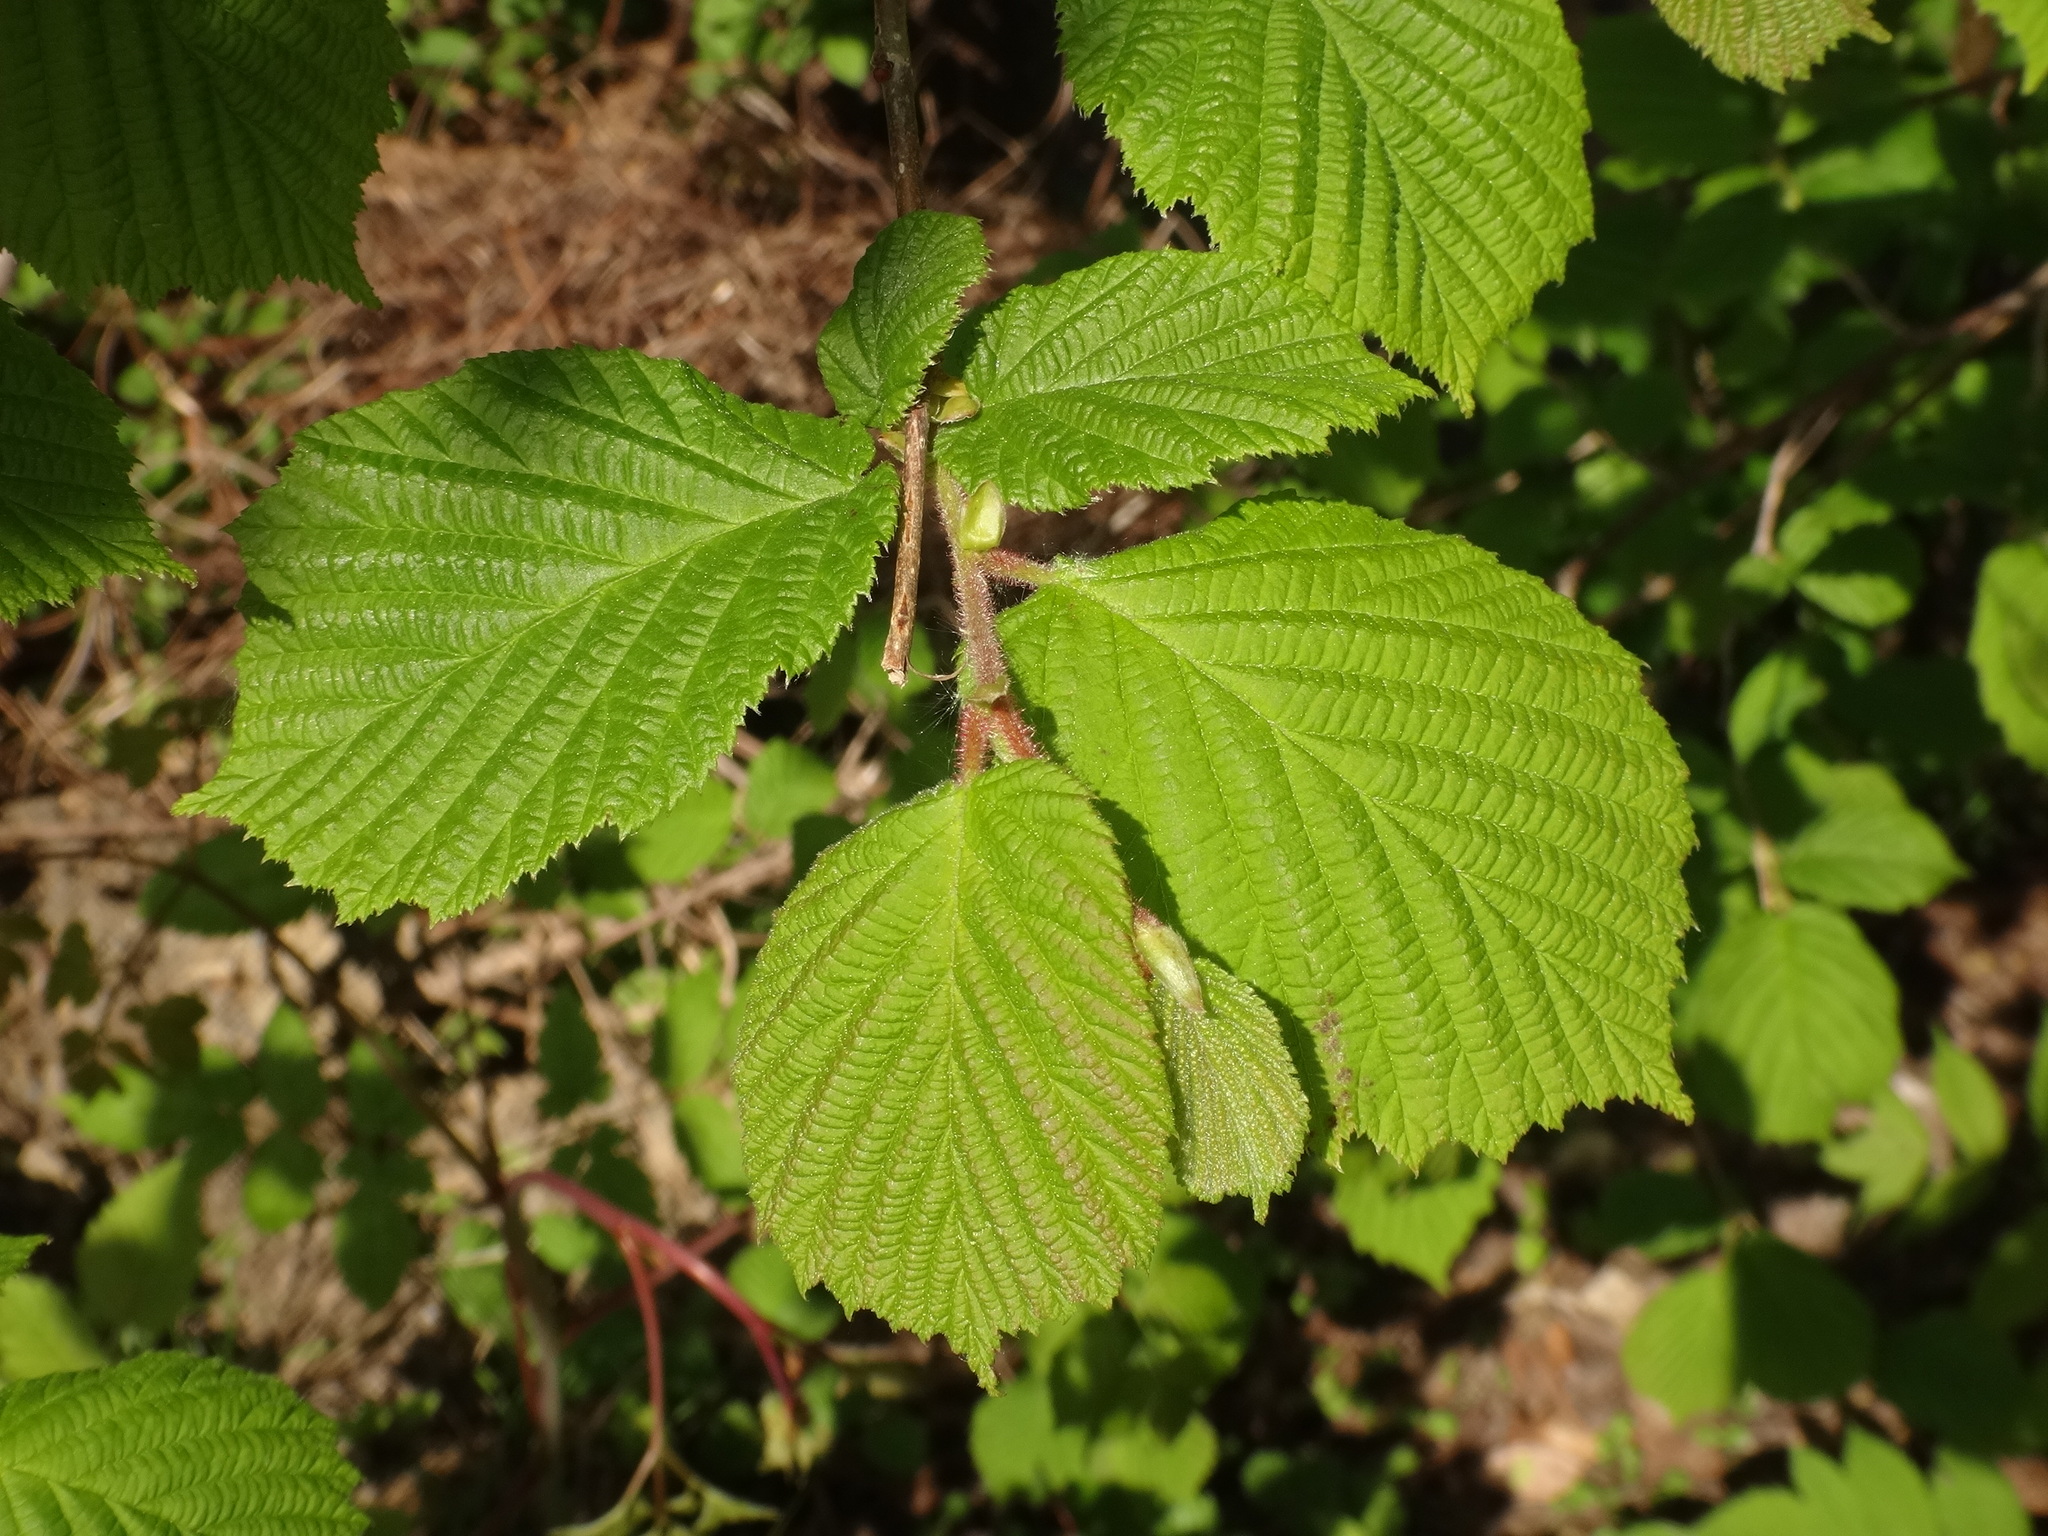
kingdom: Plantae
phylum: Tracheophyta
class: Magnoliopsida
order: Fagales
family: Betulaceae
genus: Corylus
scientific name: Corylus avellana
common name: European hazel
